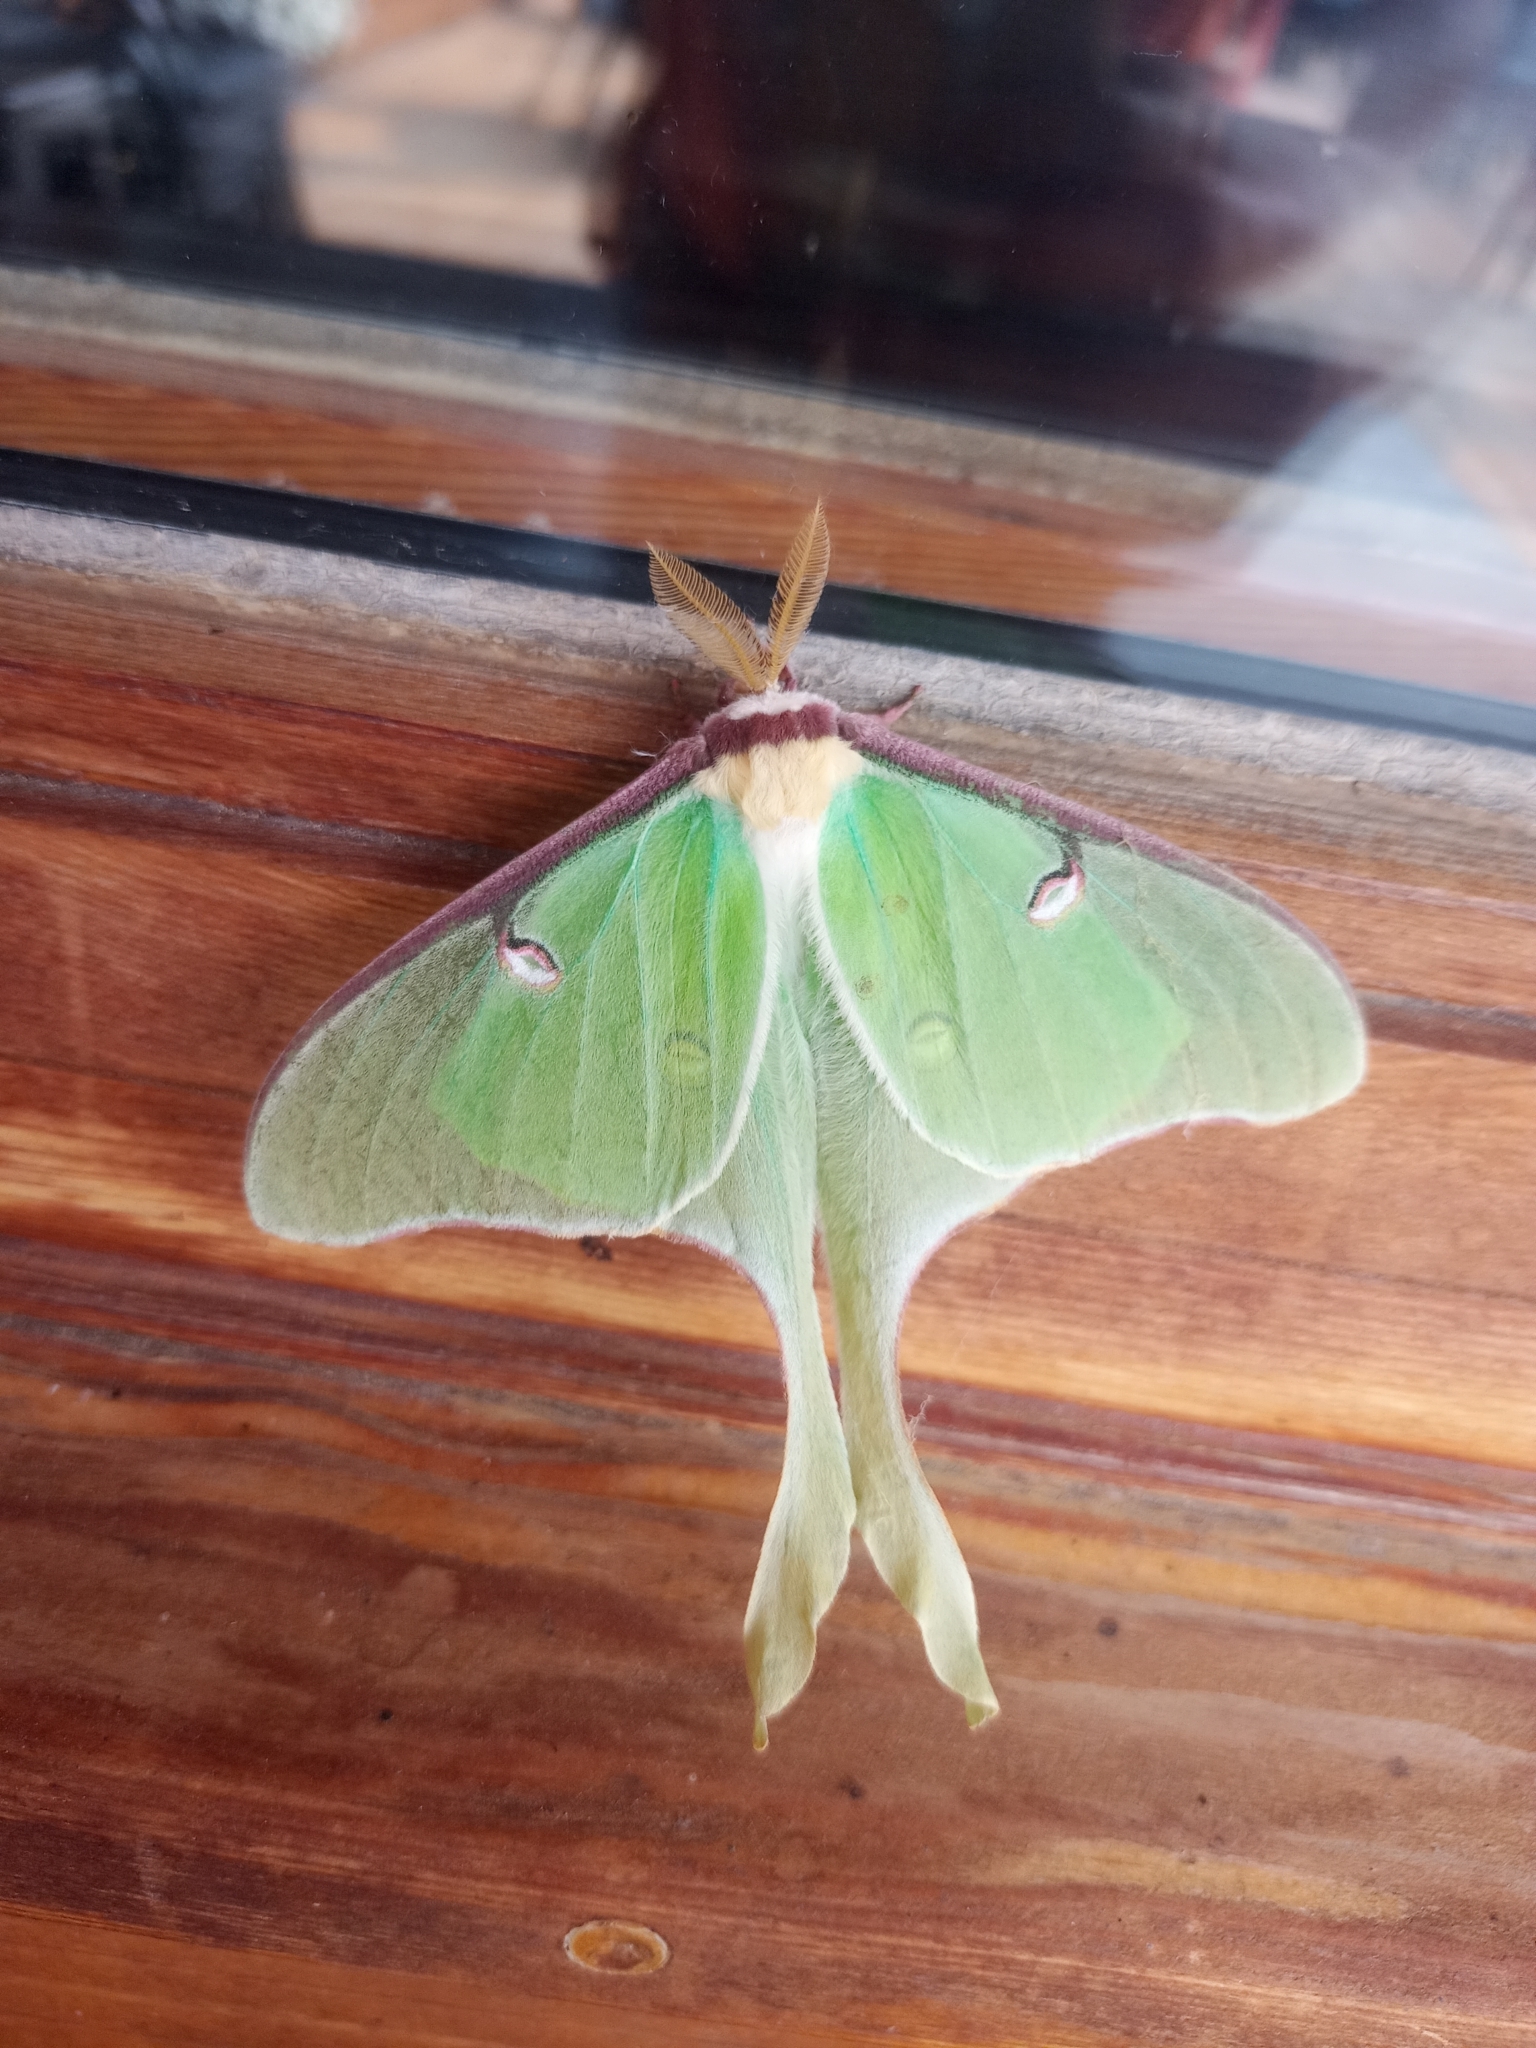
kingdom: Animalia
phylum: Arthropoda
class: Insecta
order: Lepidoptera
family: Saturniidae
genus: Actias
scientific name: Actias luna
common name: Luna moth
